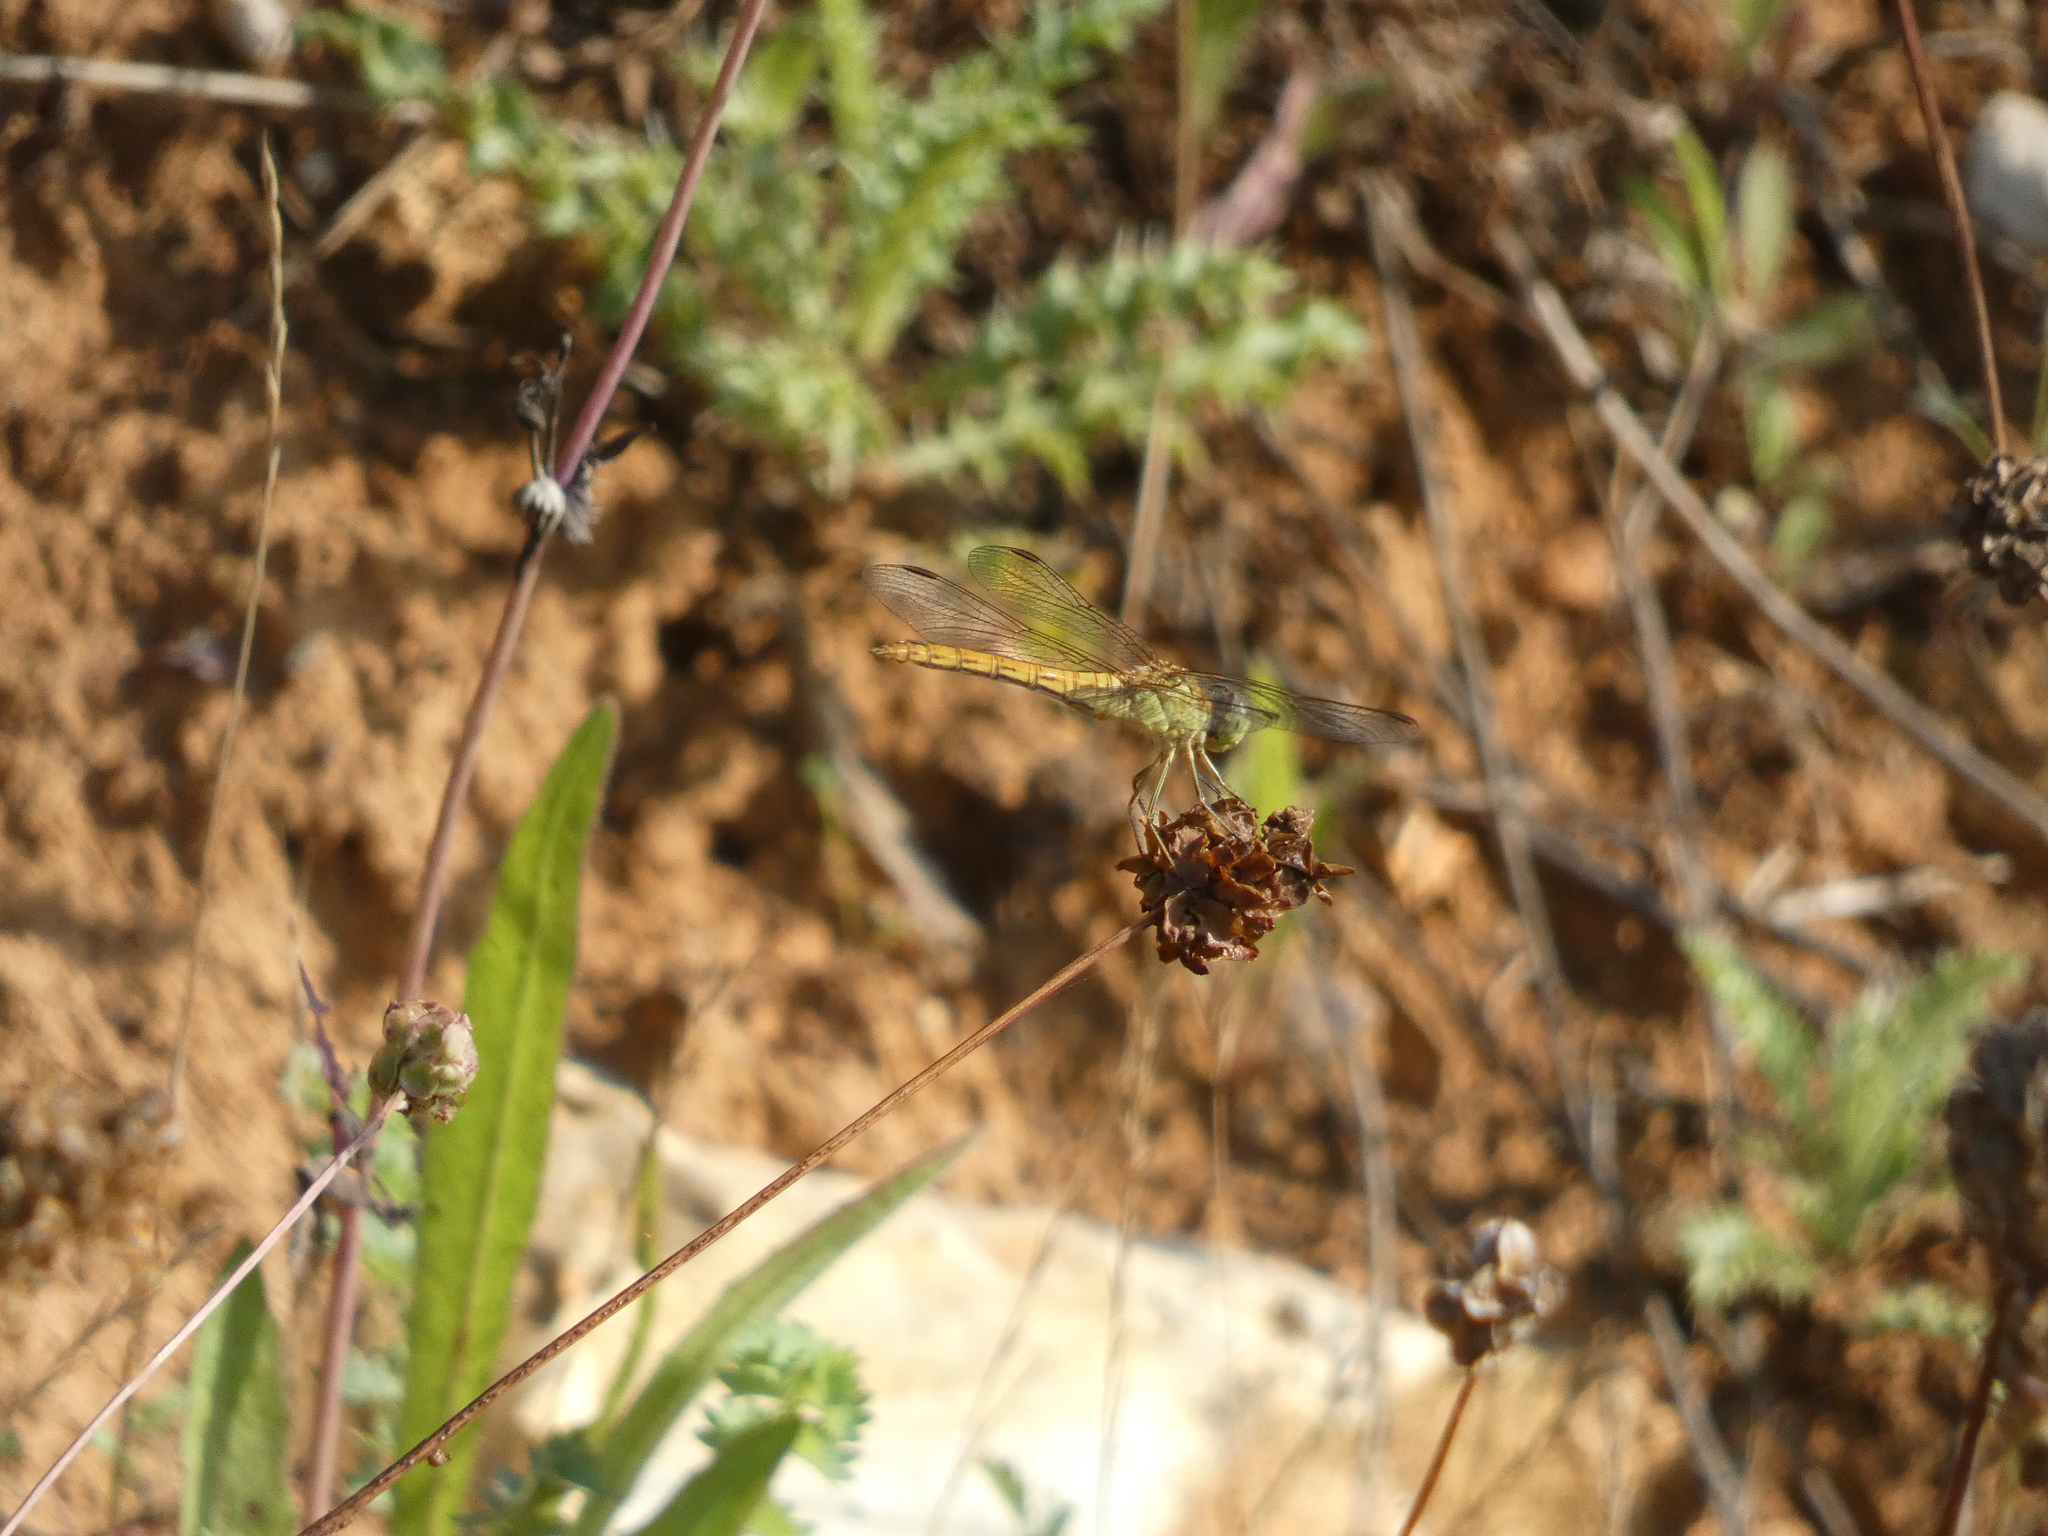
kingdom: Animalia
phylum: Arthropoda
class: Insecta
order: Odonata
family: Libellulidae
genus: Sympetrum
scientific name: Sympetrum meridionale
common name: Southern darter
